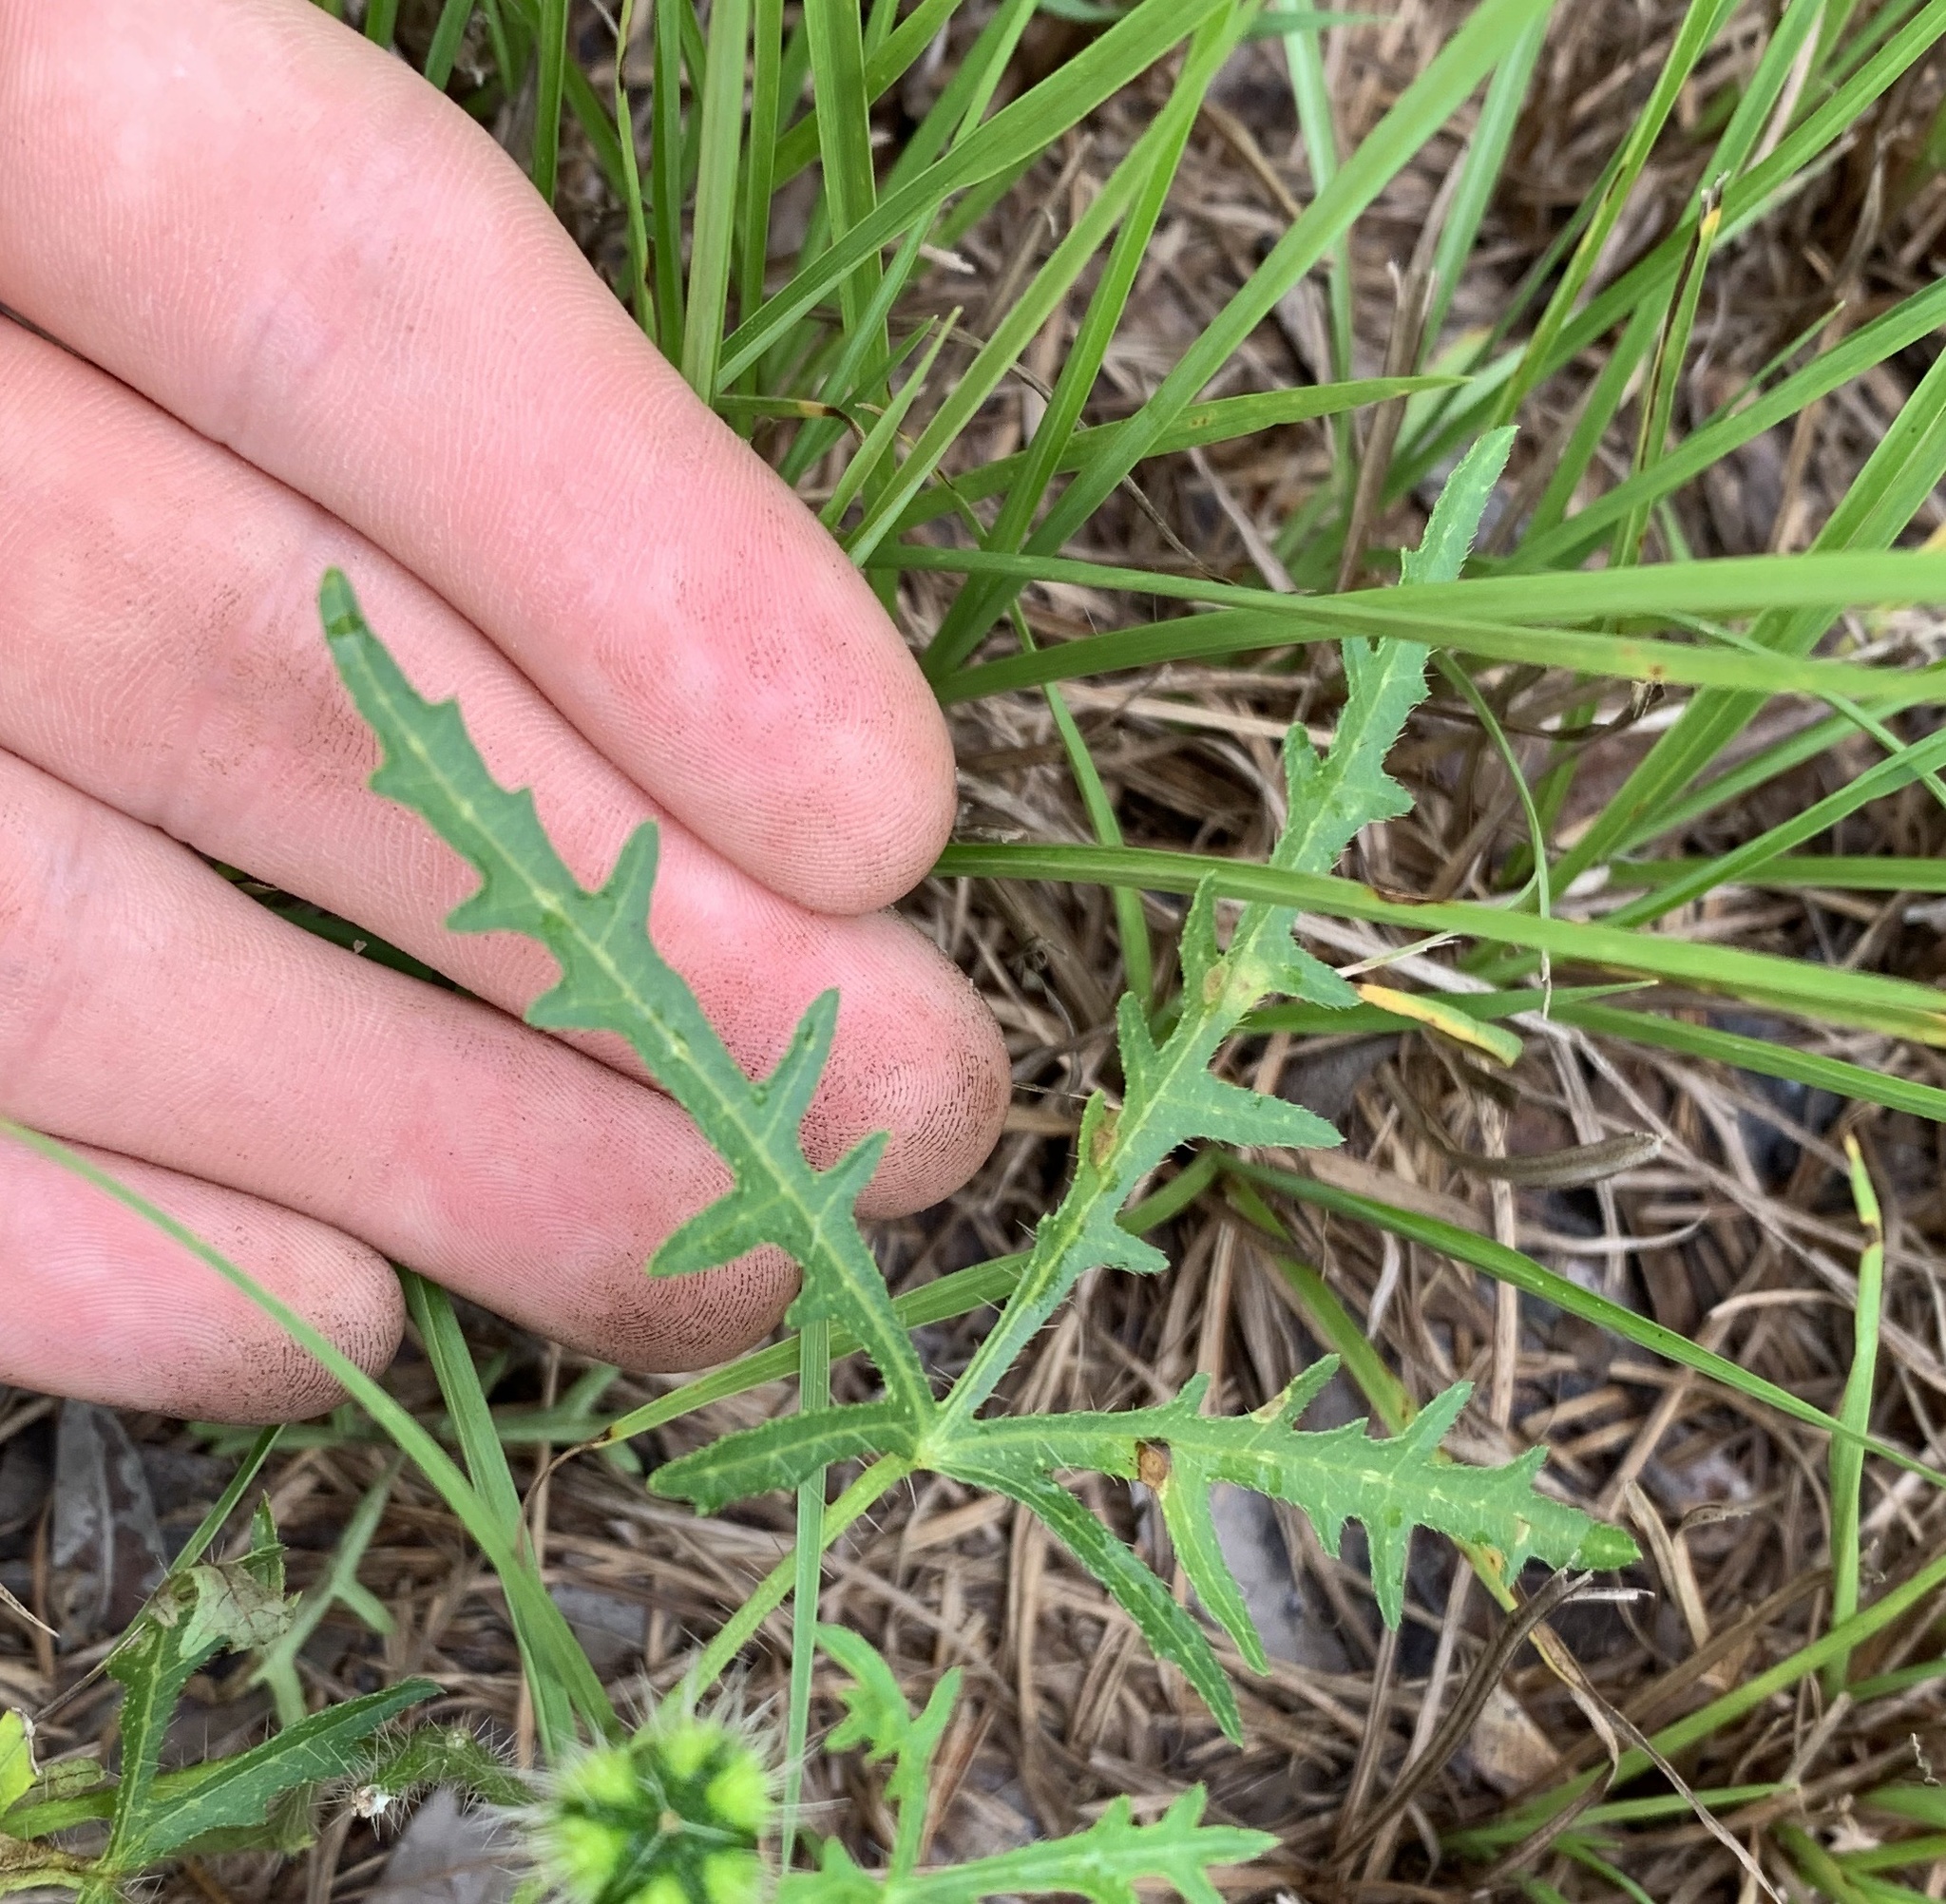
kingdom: Plantae
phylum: Tracheophyta
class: Magnoliopsida
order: Malpighiales
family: Euphorbiaceae
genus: Cnidoscolus
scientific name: Cnidoscolus stimulosus
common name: Bull-nettle
